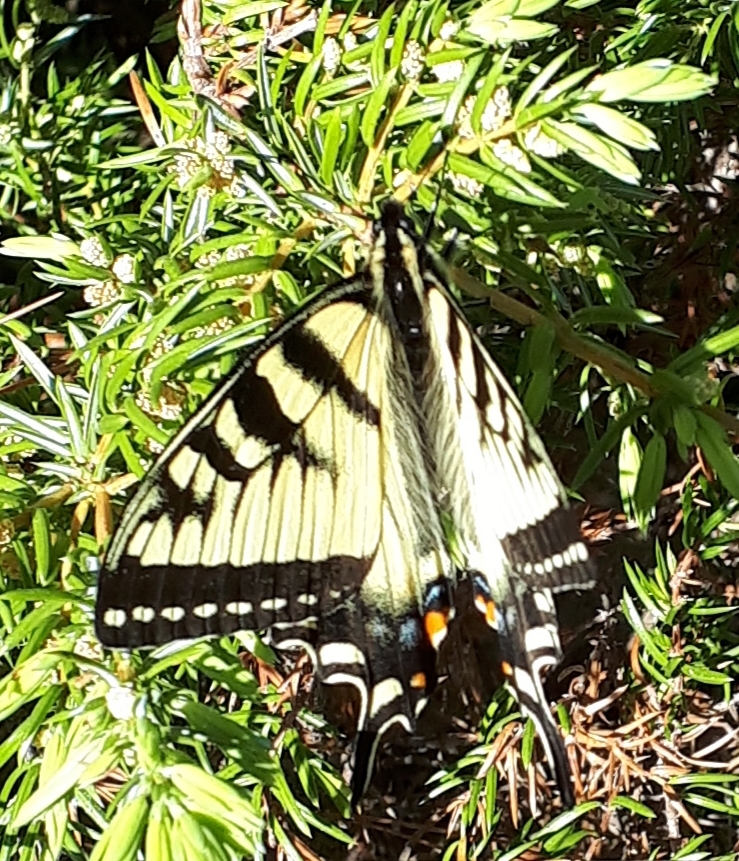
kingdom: Animalia
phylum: Arthropoda
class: Insecta
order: Lepidoptera
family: Papilionidae
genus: Papilio
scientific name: Papilio canadensis
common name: Canadian tiger swallowtail
